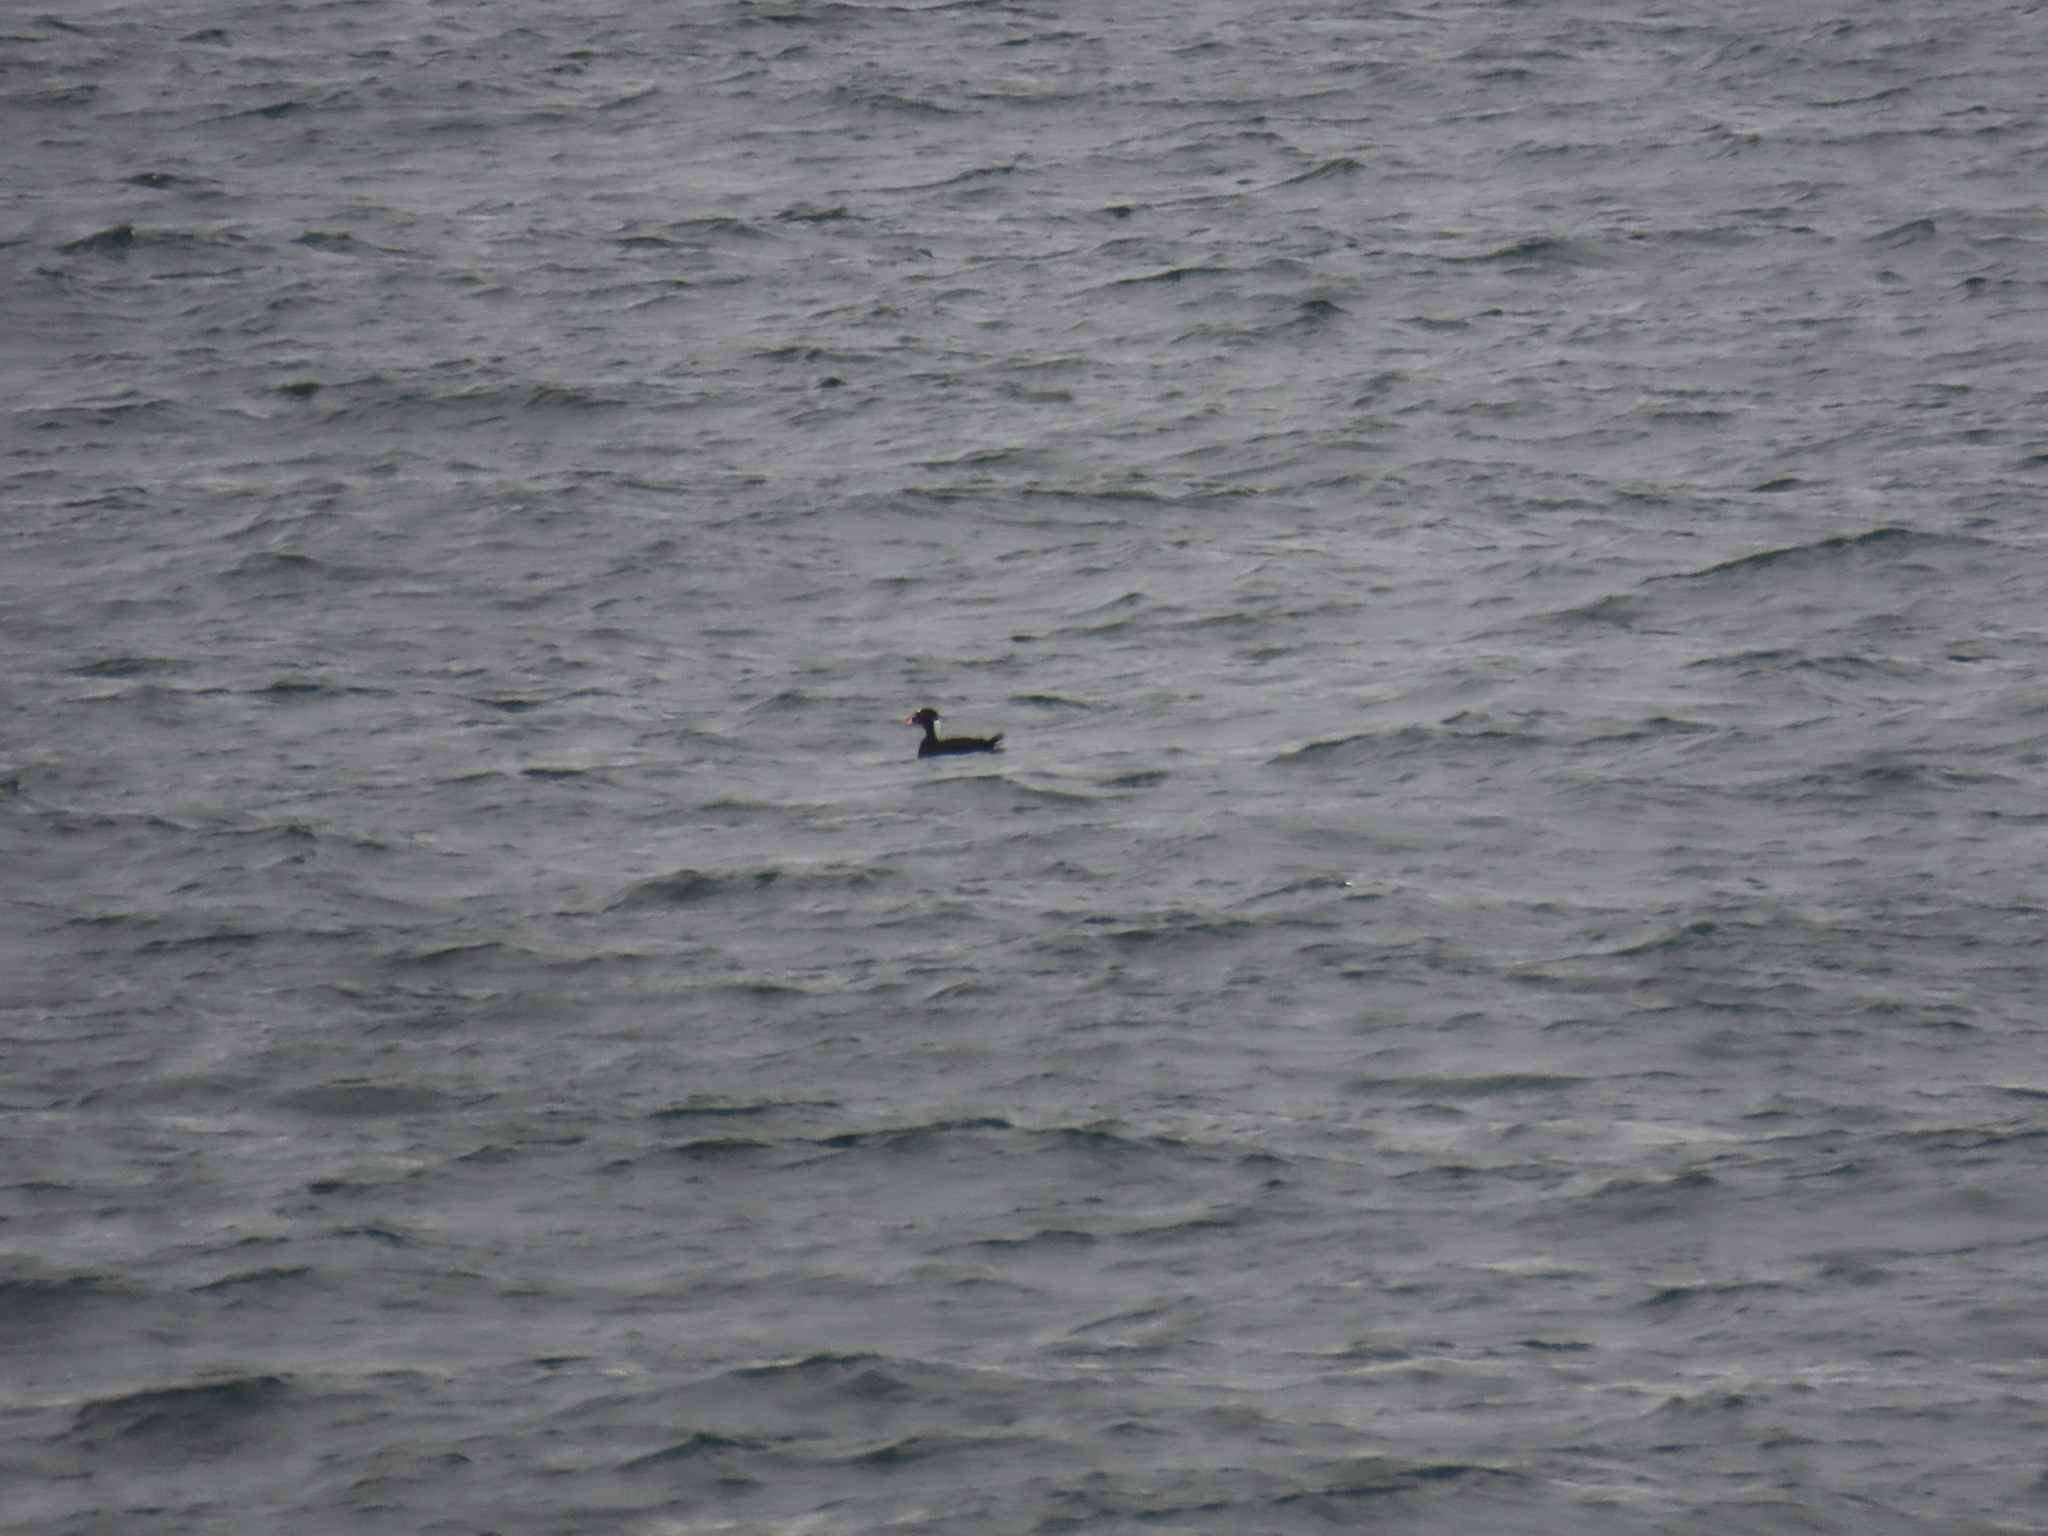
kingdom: Animalia
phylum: Chordata
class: Aves
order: Anseriformes
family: Anatidae
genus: Melanitta
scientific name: Melanitta perspicillata
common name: Surf scoter
